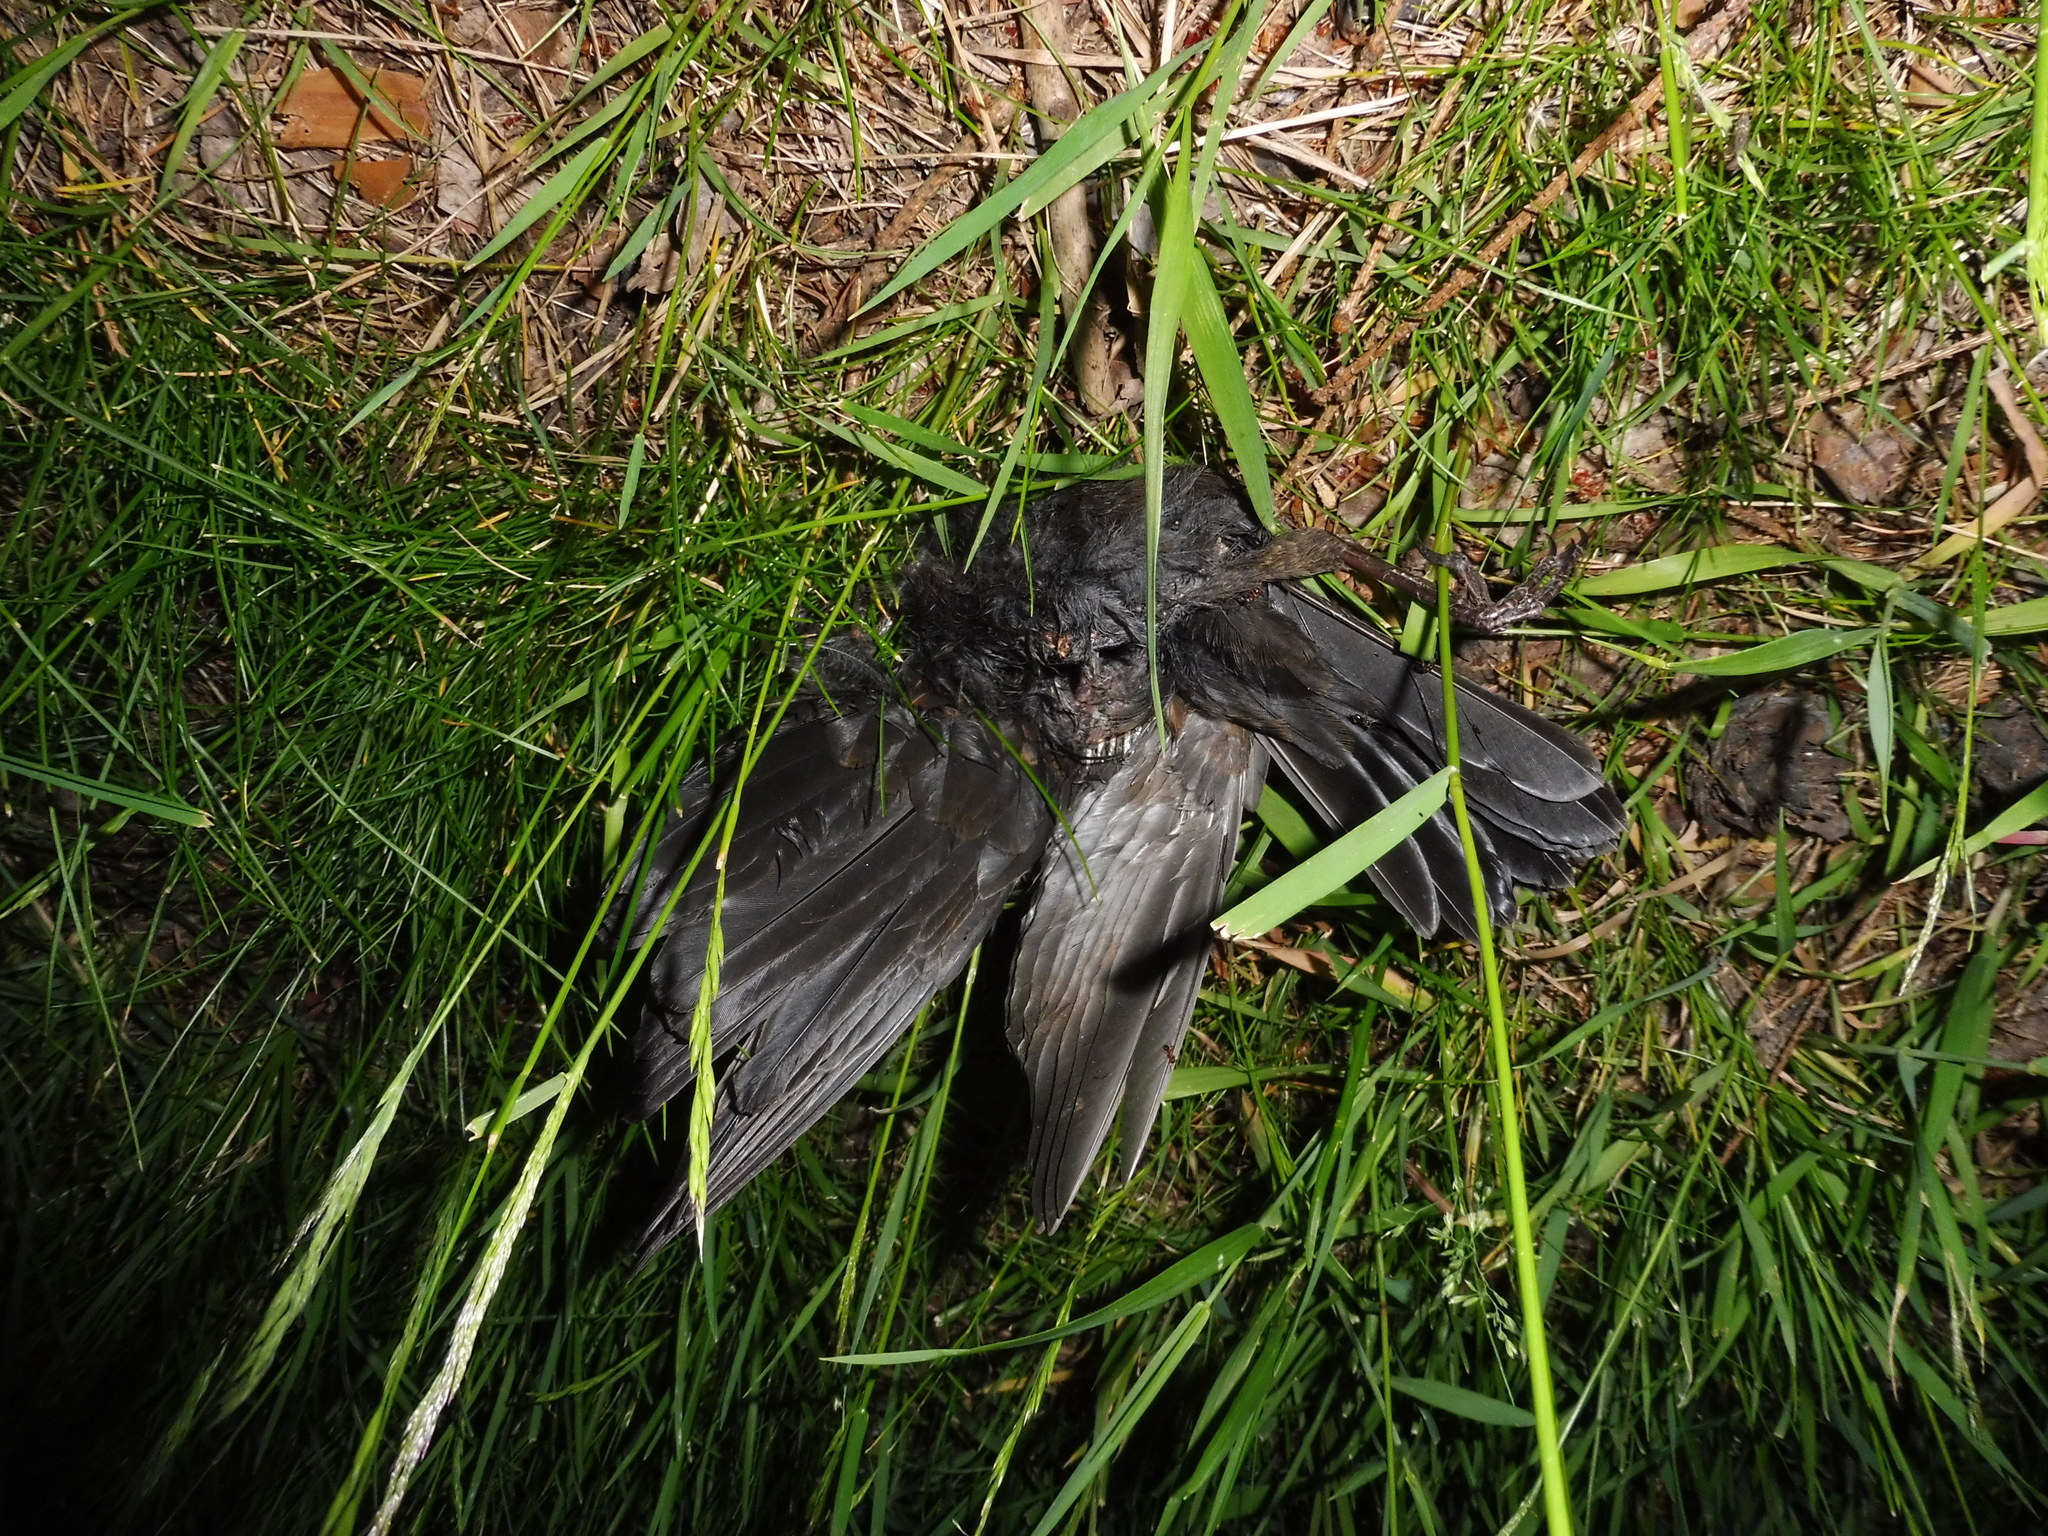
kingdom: Animalia
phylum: Chordata
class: Aves
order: Passeriformes
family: Turdidae
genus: Turdus
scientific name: Turdus merula
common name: Common blackbird
